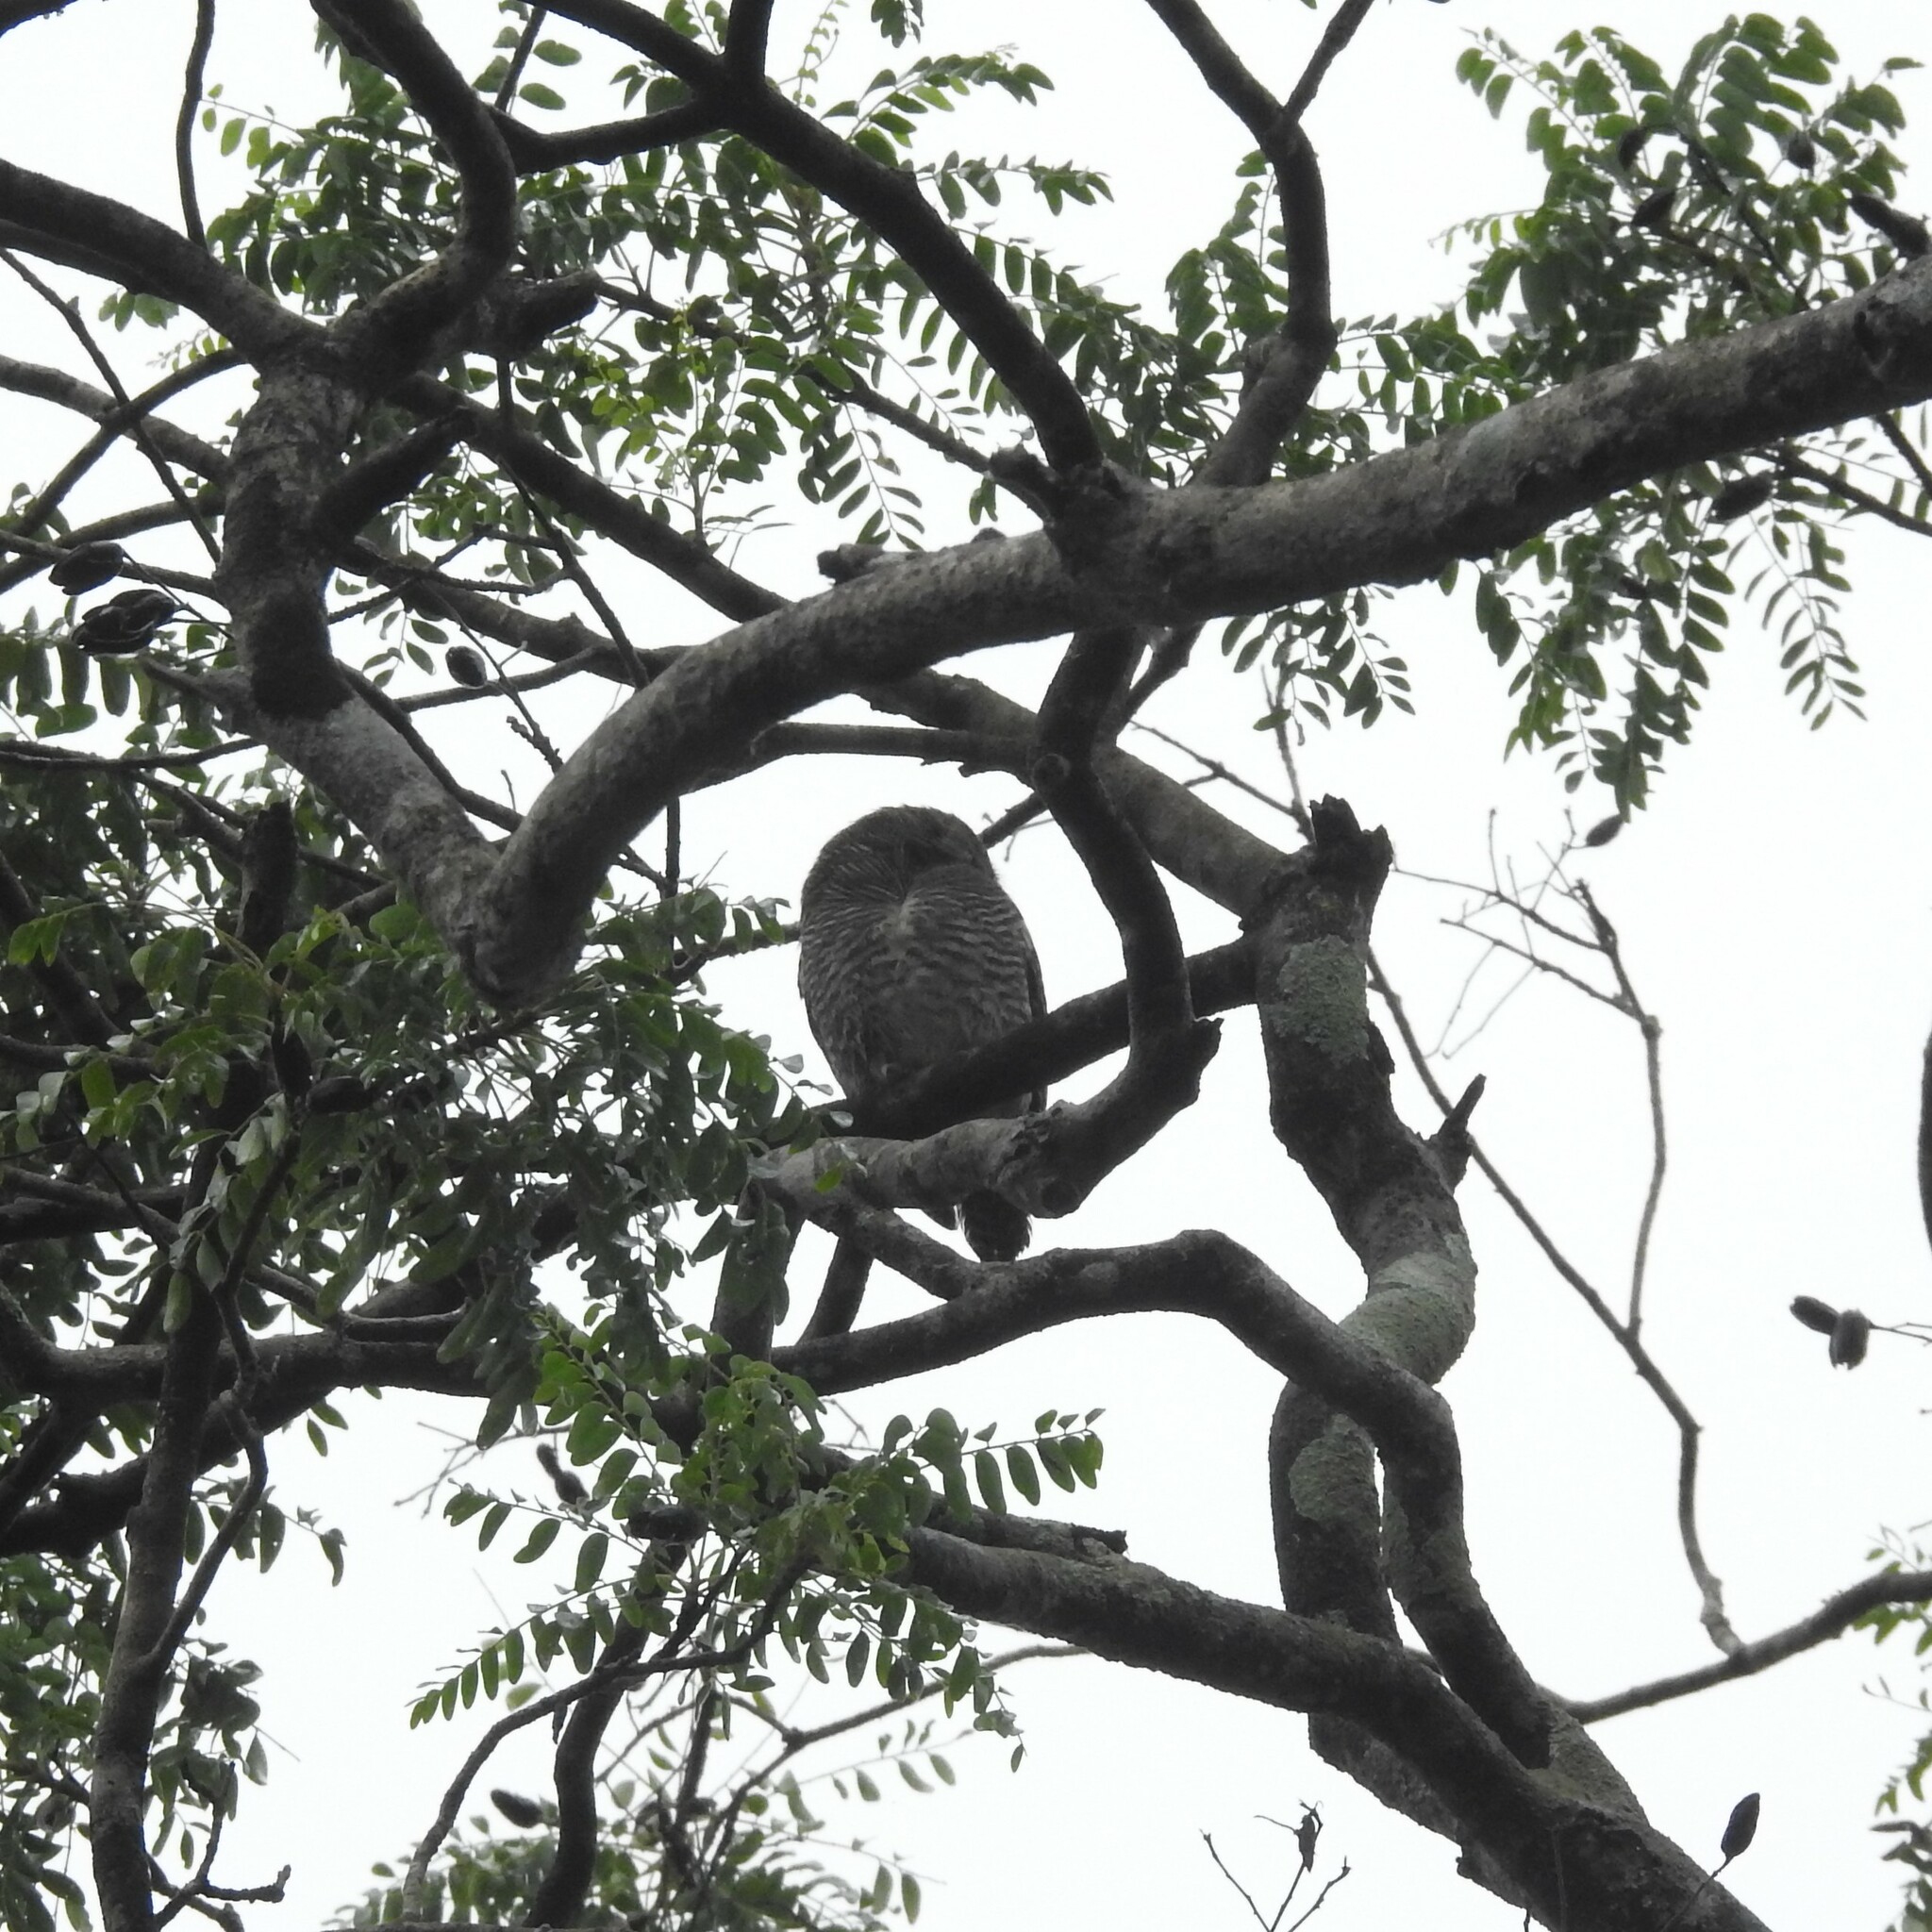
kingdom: Animalia
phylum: Chordata
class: Aves
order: Strigiformes
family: Strigidae
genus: Glaucidium
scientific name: Glaucidium radiatum
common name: Jungle owlet
